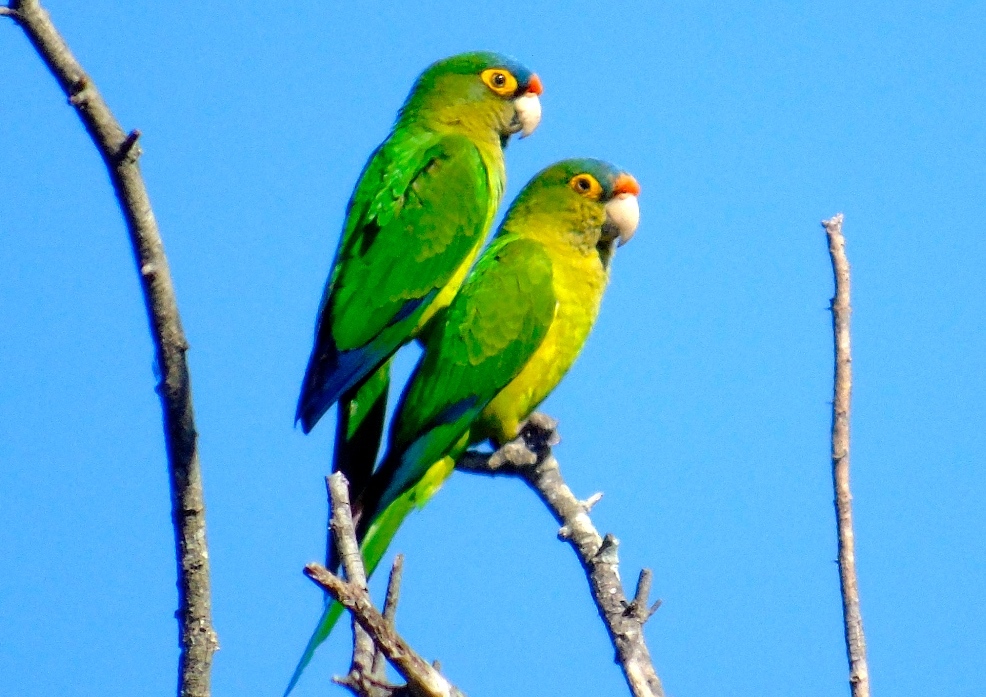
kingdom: Animalia
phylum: Chordata
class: Aves
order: Psittaciformes
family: Psittacidae
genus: Aratinga
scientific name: Aratinga canicularis
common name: Orange-fronted parakeet
